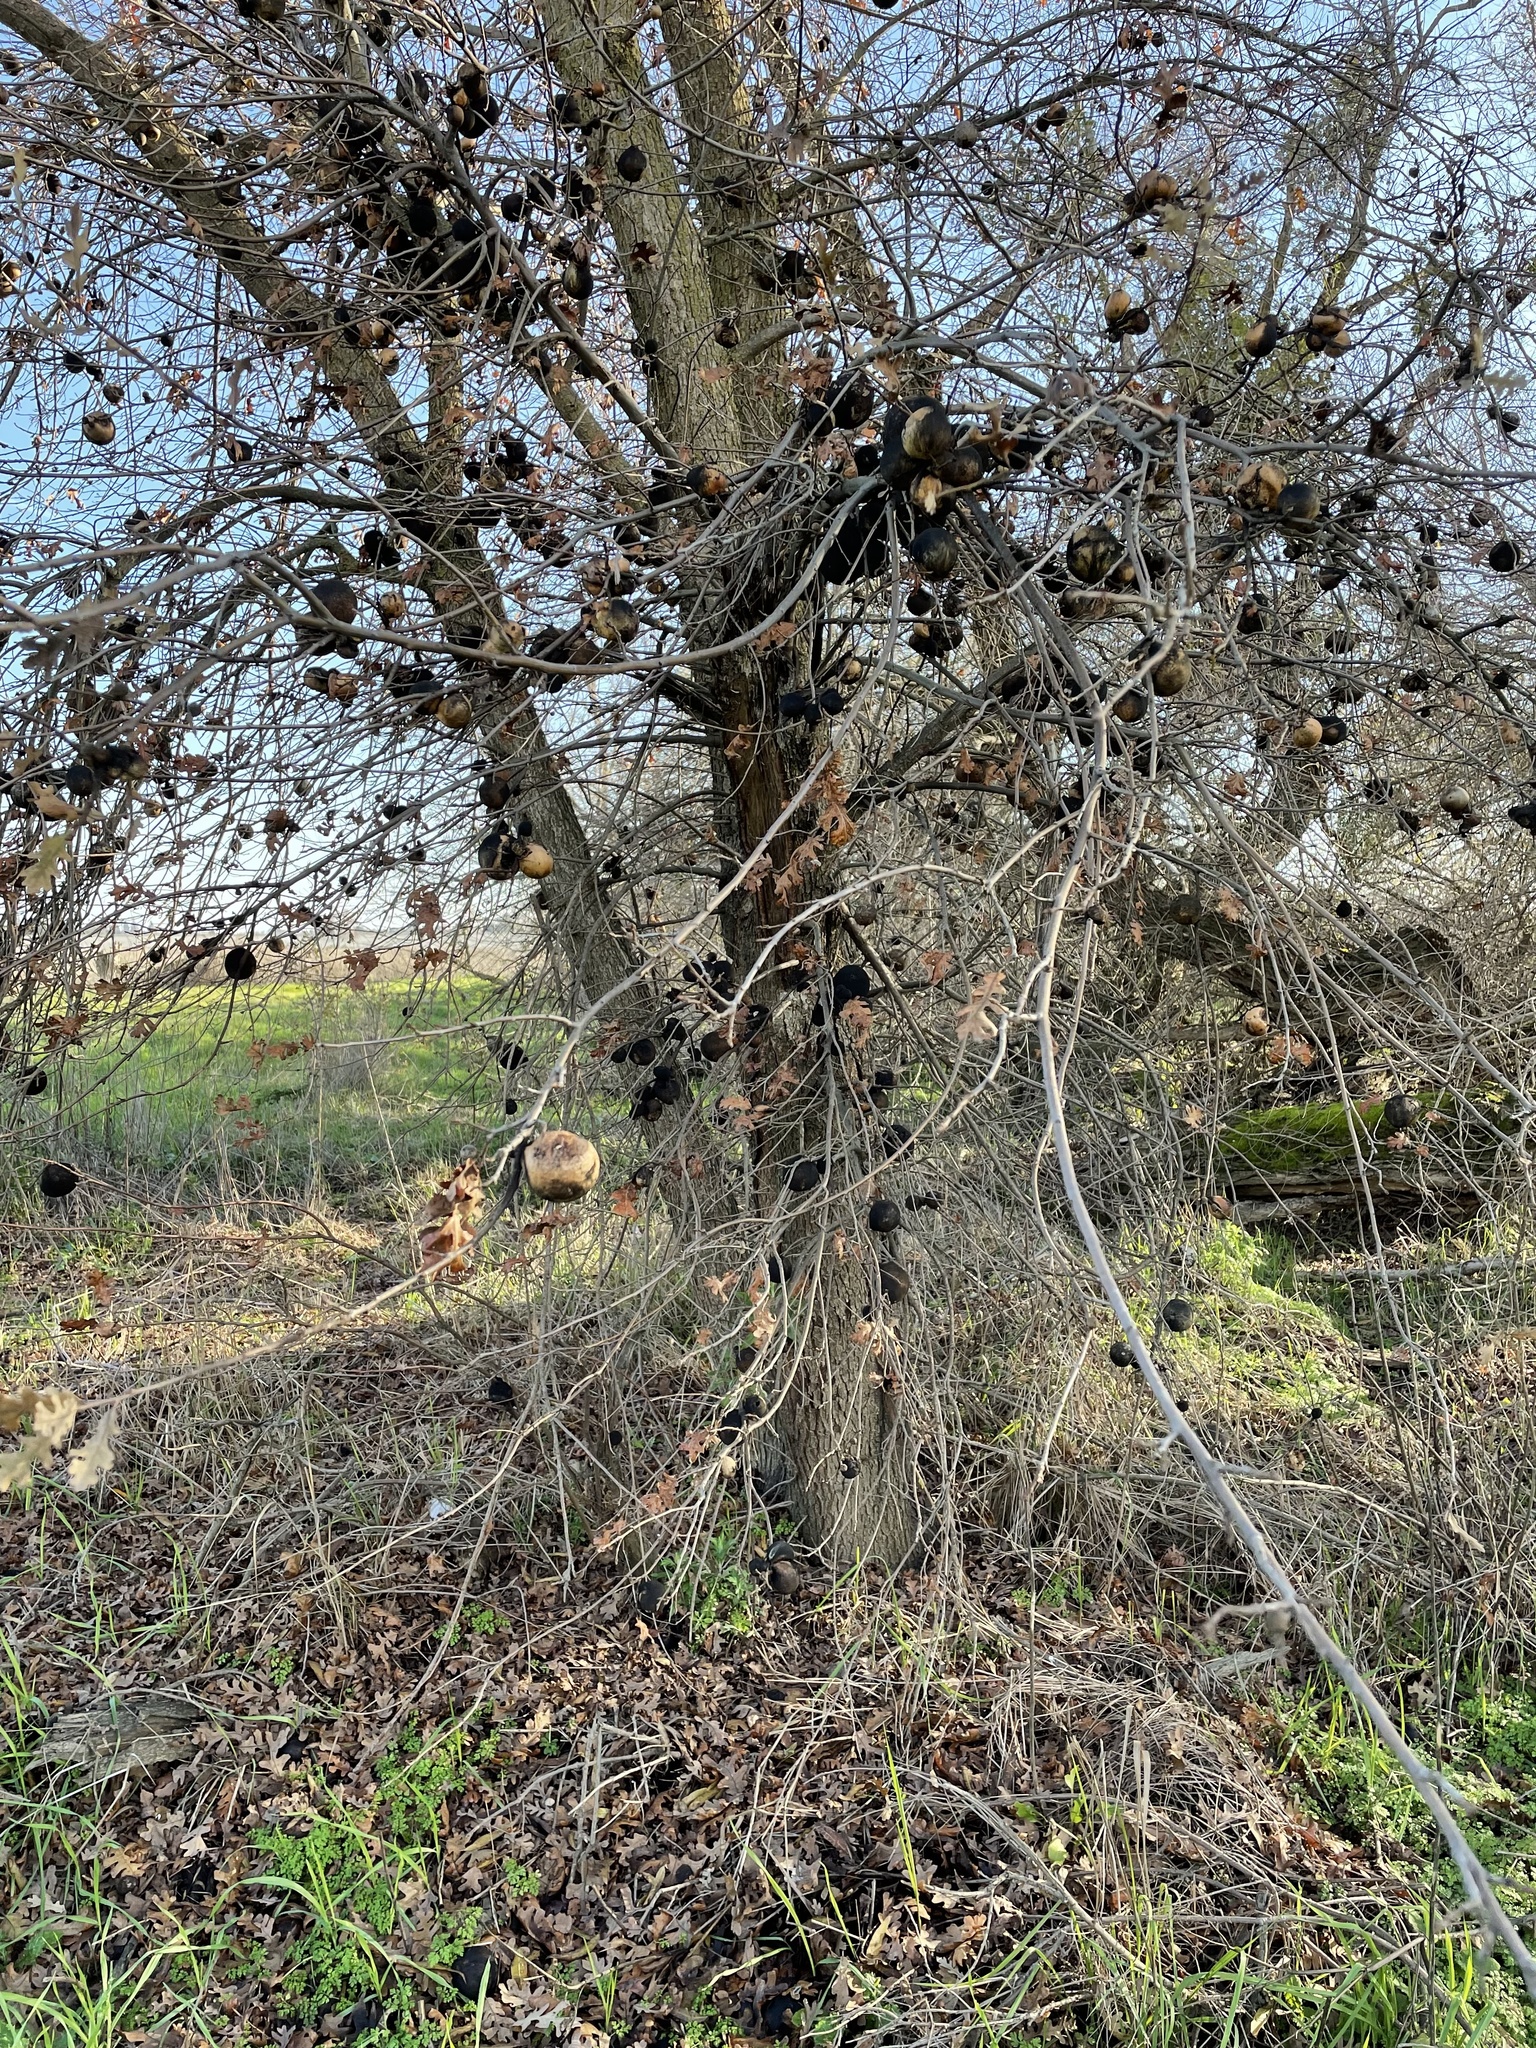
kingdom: Plantae
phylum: Tracheophyta
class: Magnoliopsida
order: Fagales
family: Fagaceae
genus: Quercus
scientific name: Quercus lobata
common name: Valley oak
